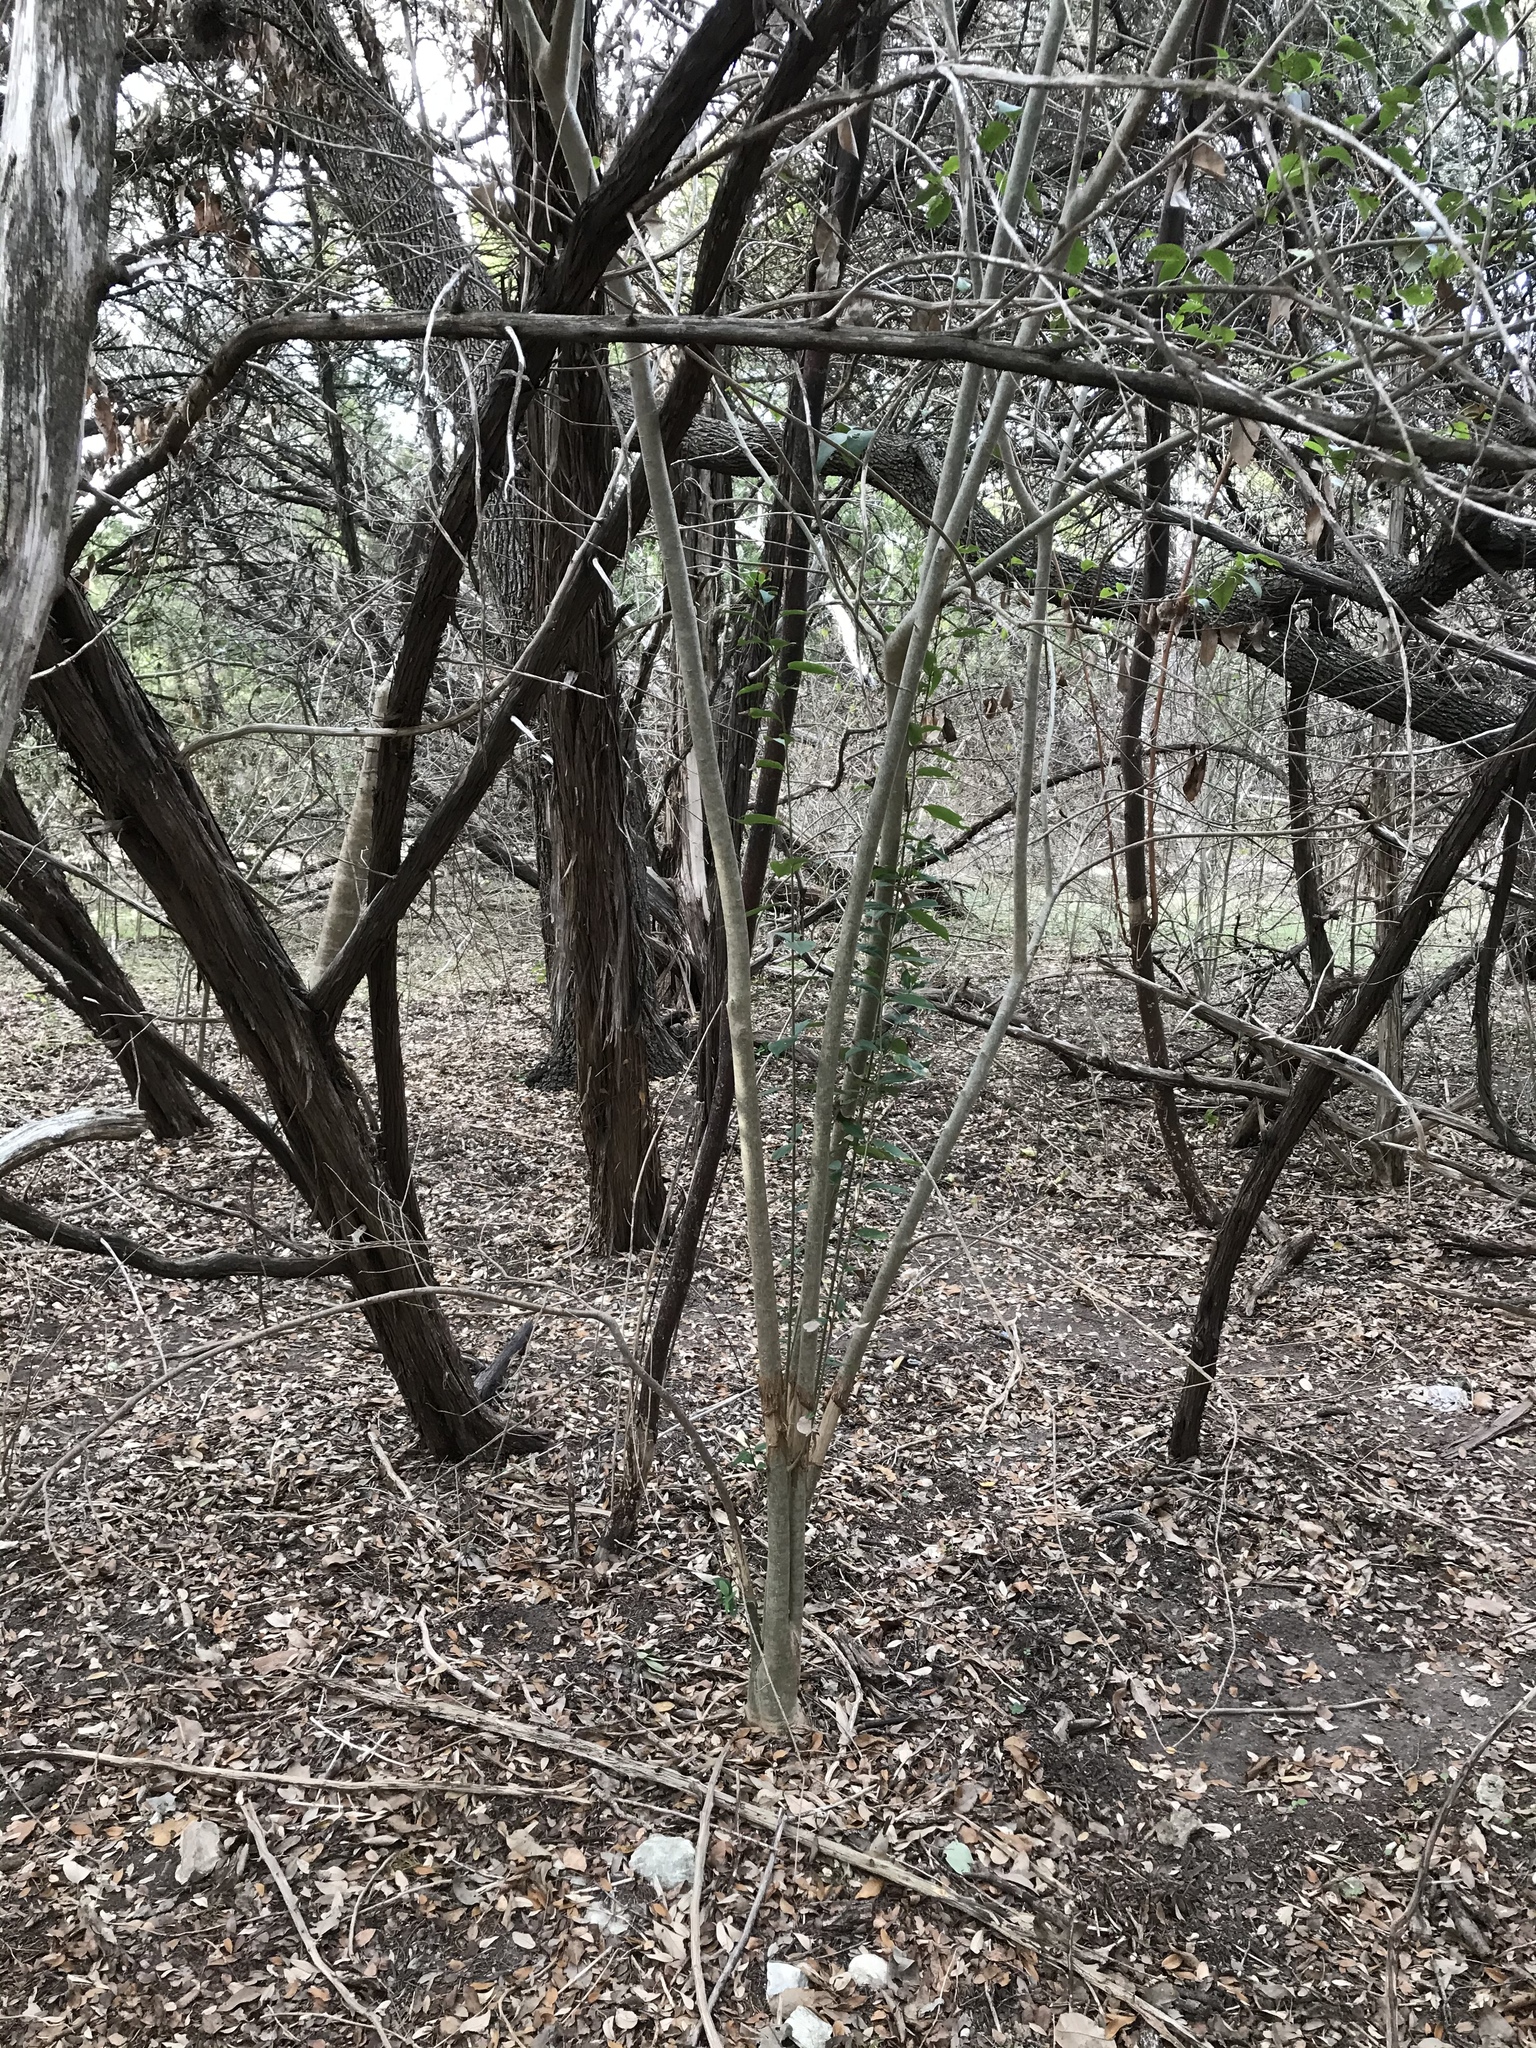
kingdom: Plantae
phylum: Tracheophyta
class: Magnoliopsida
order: Lamiales
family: Oleaceae
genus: Ligustrum
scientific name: Ligustrum lucidum
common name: Glossy privet
